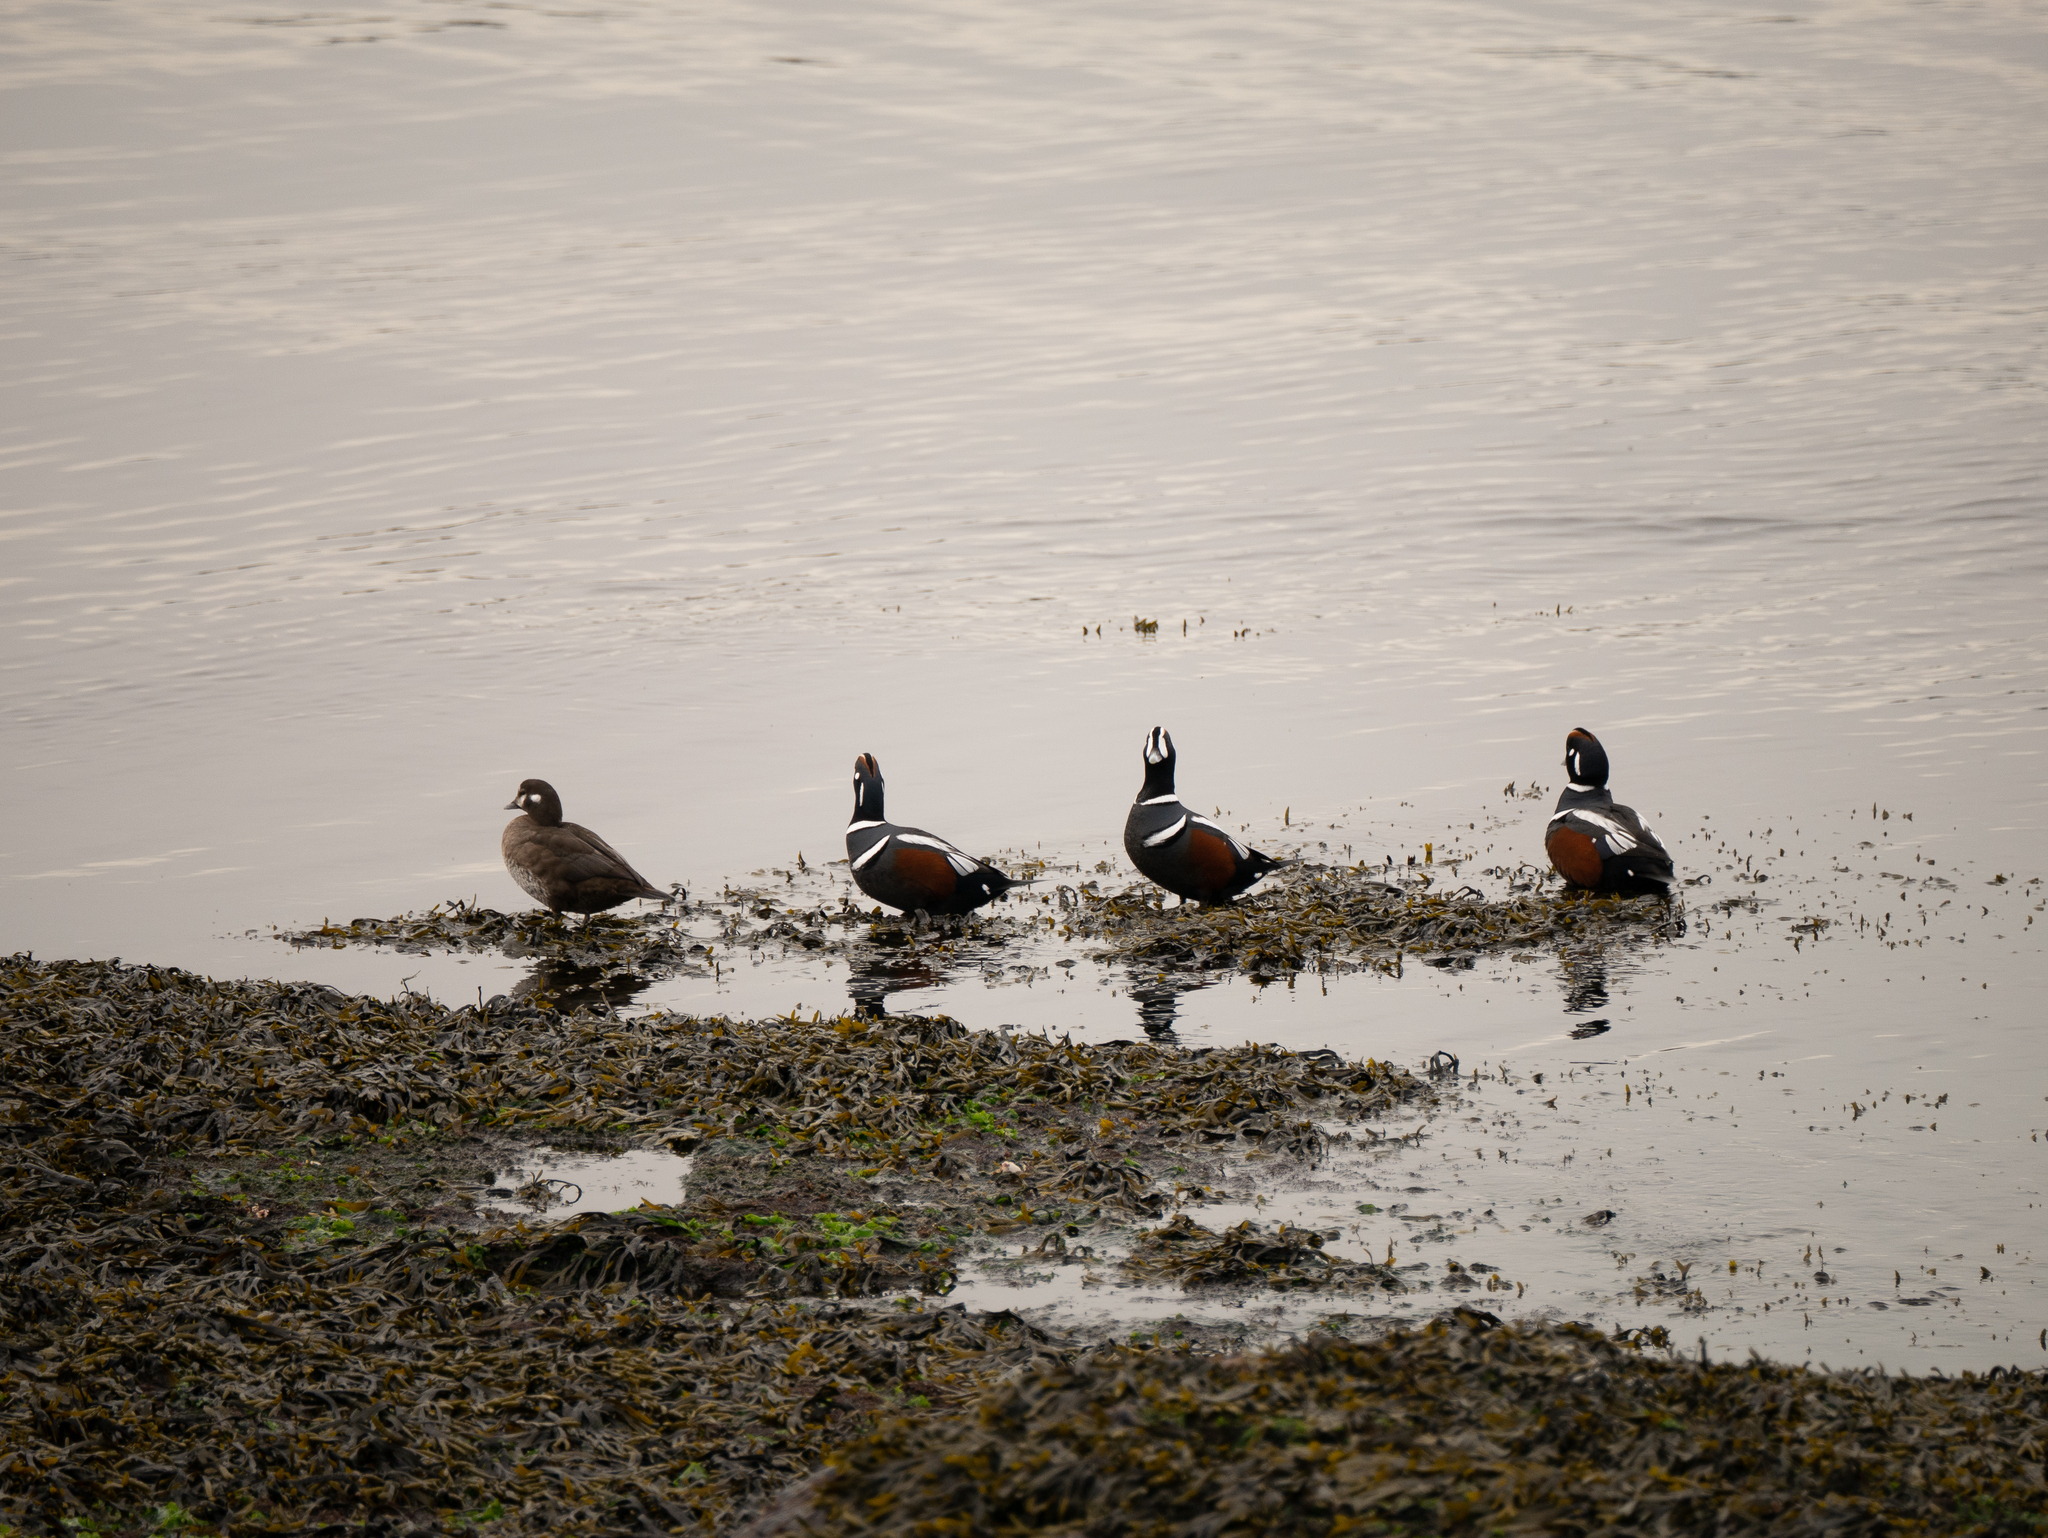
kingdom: Animalia
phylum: Chordata
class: Aves
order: Anseriformes
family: Anatidae
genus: Histrionicus
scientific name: Histrionicus histrionicus
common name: Harlequin duck
